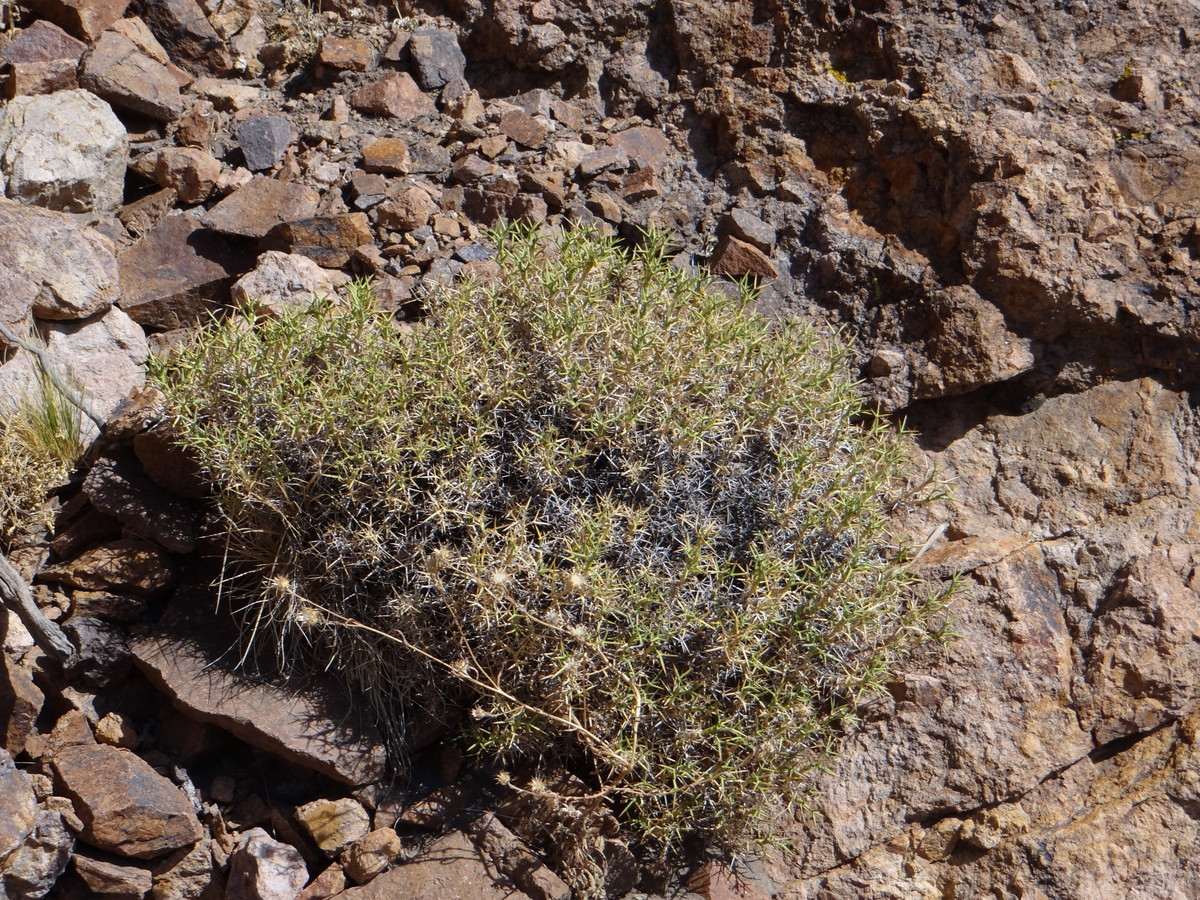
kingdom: Plantae
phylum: Tracheophyta
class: Magnoliopsida
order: Apiales
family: Apiaceae
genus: Azorella
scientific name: Azorella prolifera
